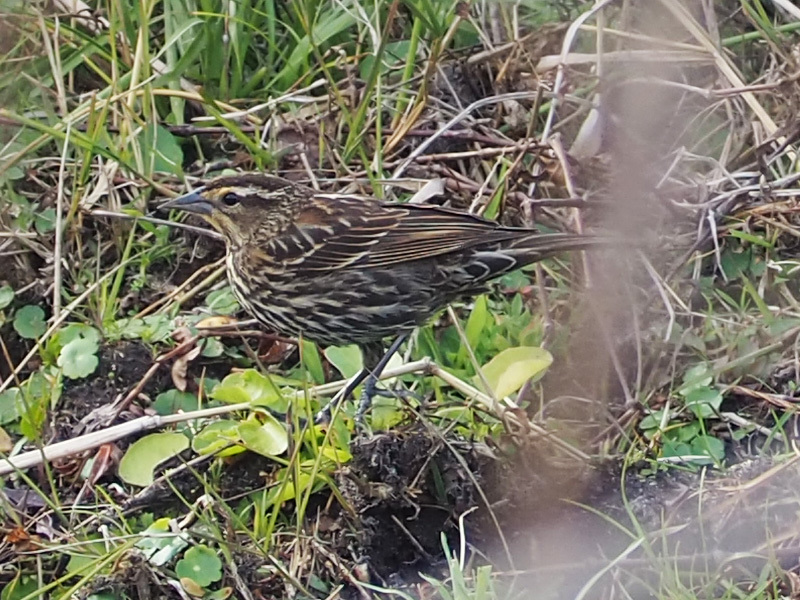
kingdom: Animalia
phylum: Chordata
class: Aves
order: Passeriformes
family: Icteridae
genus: Agelaius
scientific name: Agelaius phoeniceus
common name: Red-winged blackbird
